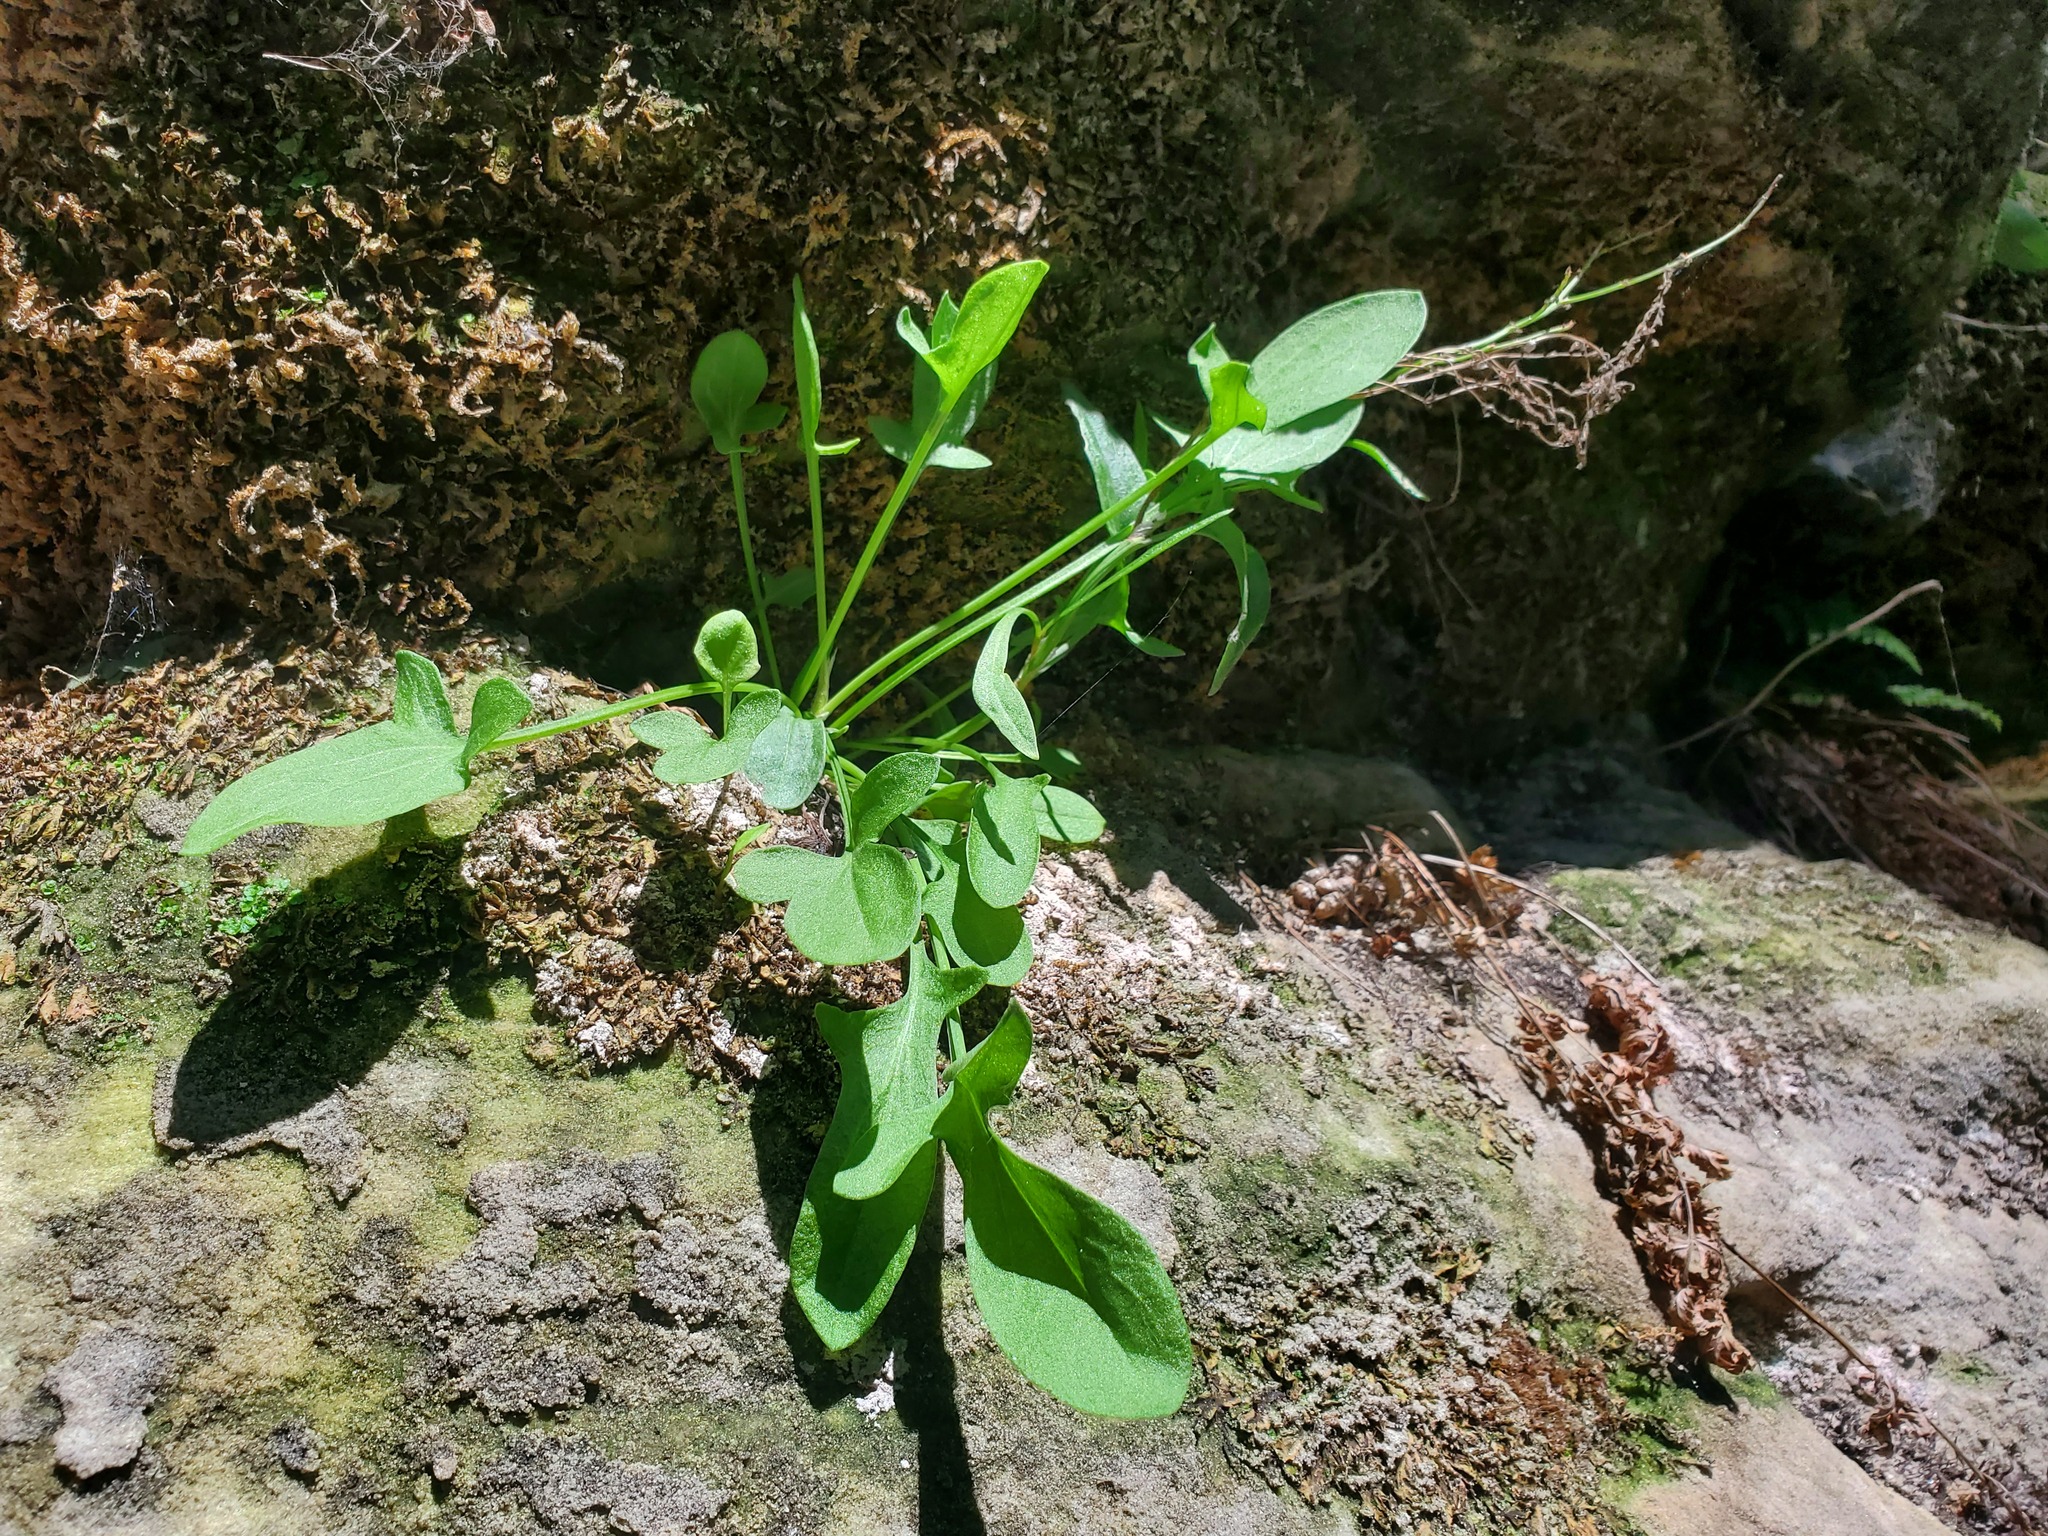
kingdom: Plantae
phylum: Tracheophyta
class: Magnoliopsida
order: Caryophyllales
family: Polygonaceae
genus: Rumex
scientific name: Rumex acetosella
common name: Common sheep sorrel
